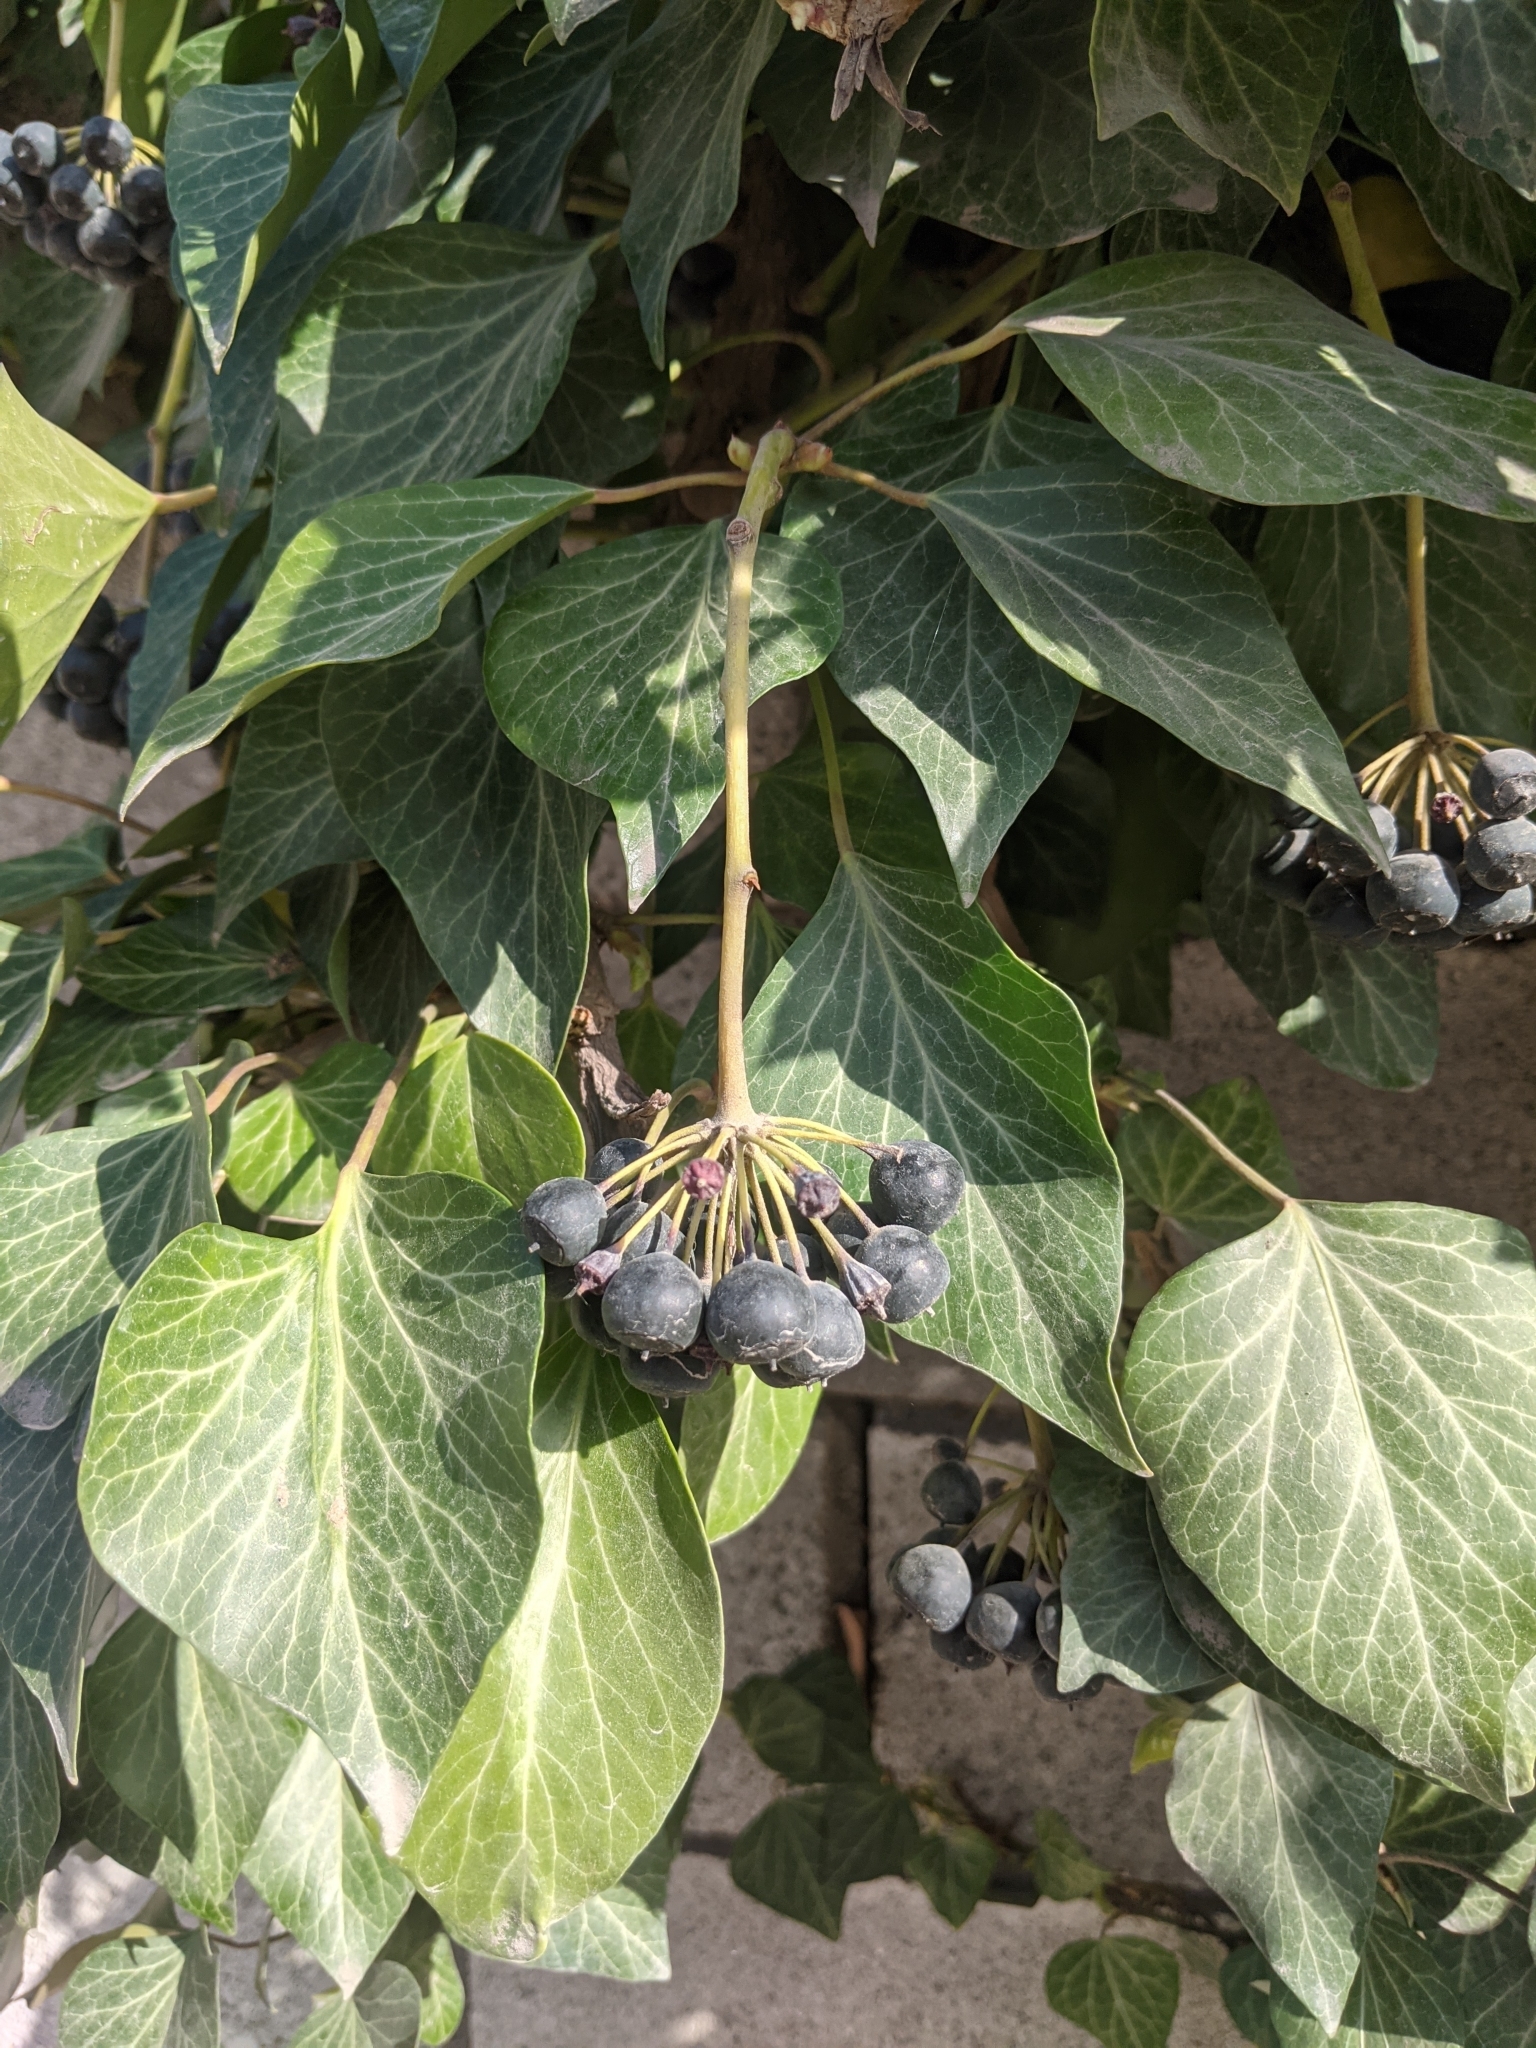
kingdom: Plantae
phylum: Tracheophyta
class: Magnoliopsida
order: Apiales
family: Araliaceae
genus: Hedera
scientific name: Hedera helix
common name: Ivy
